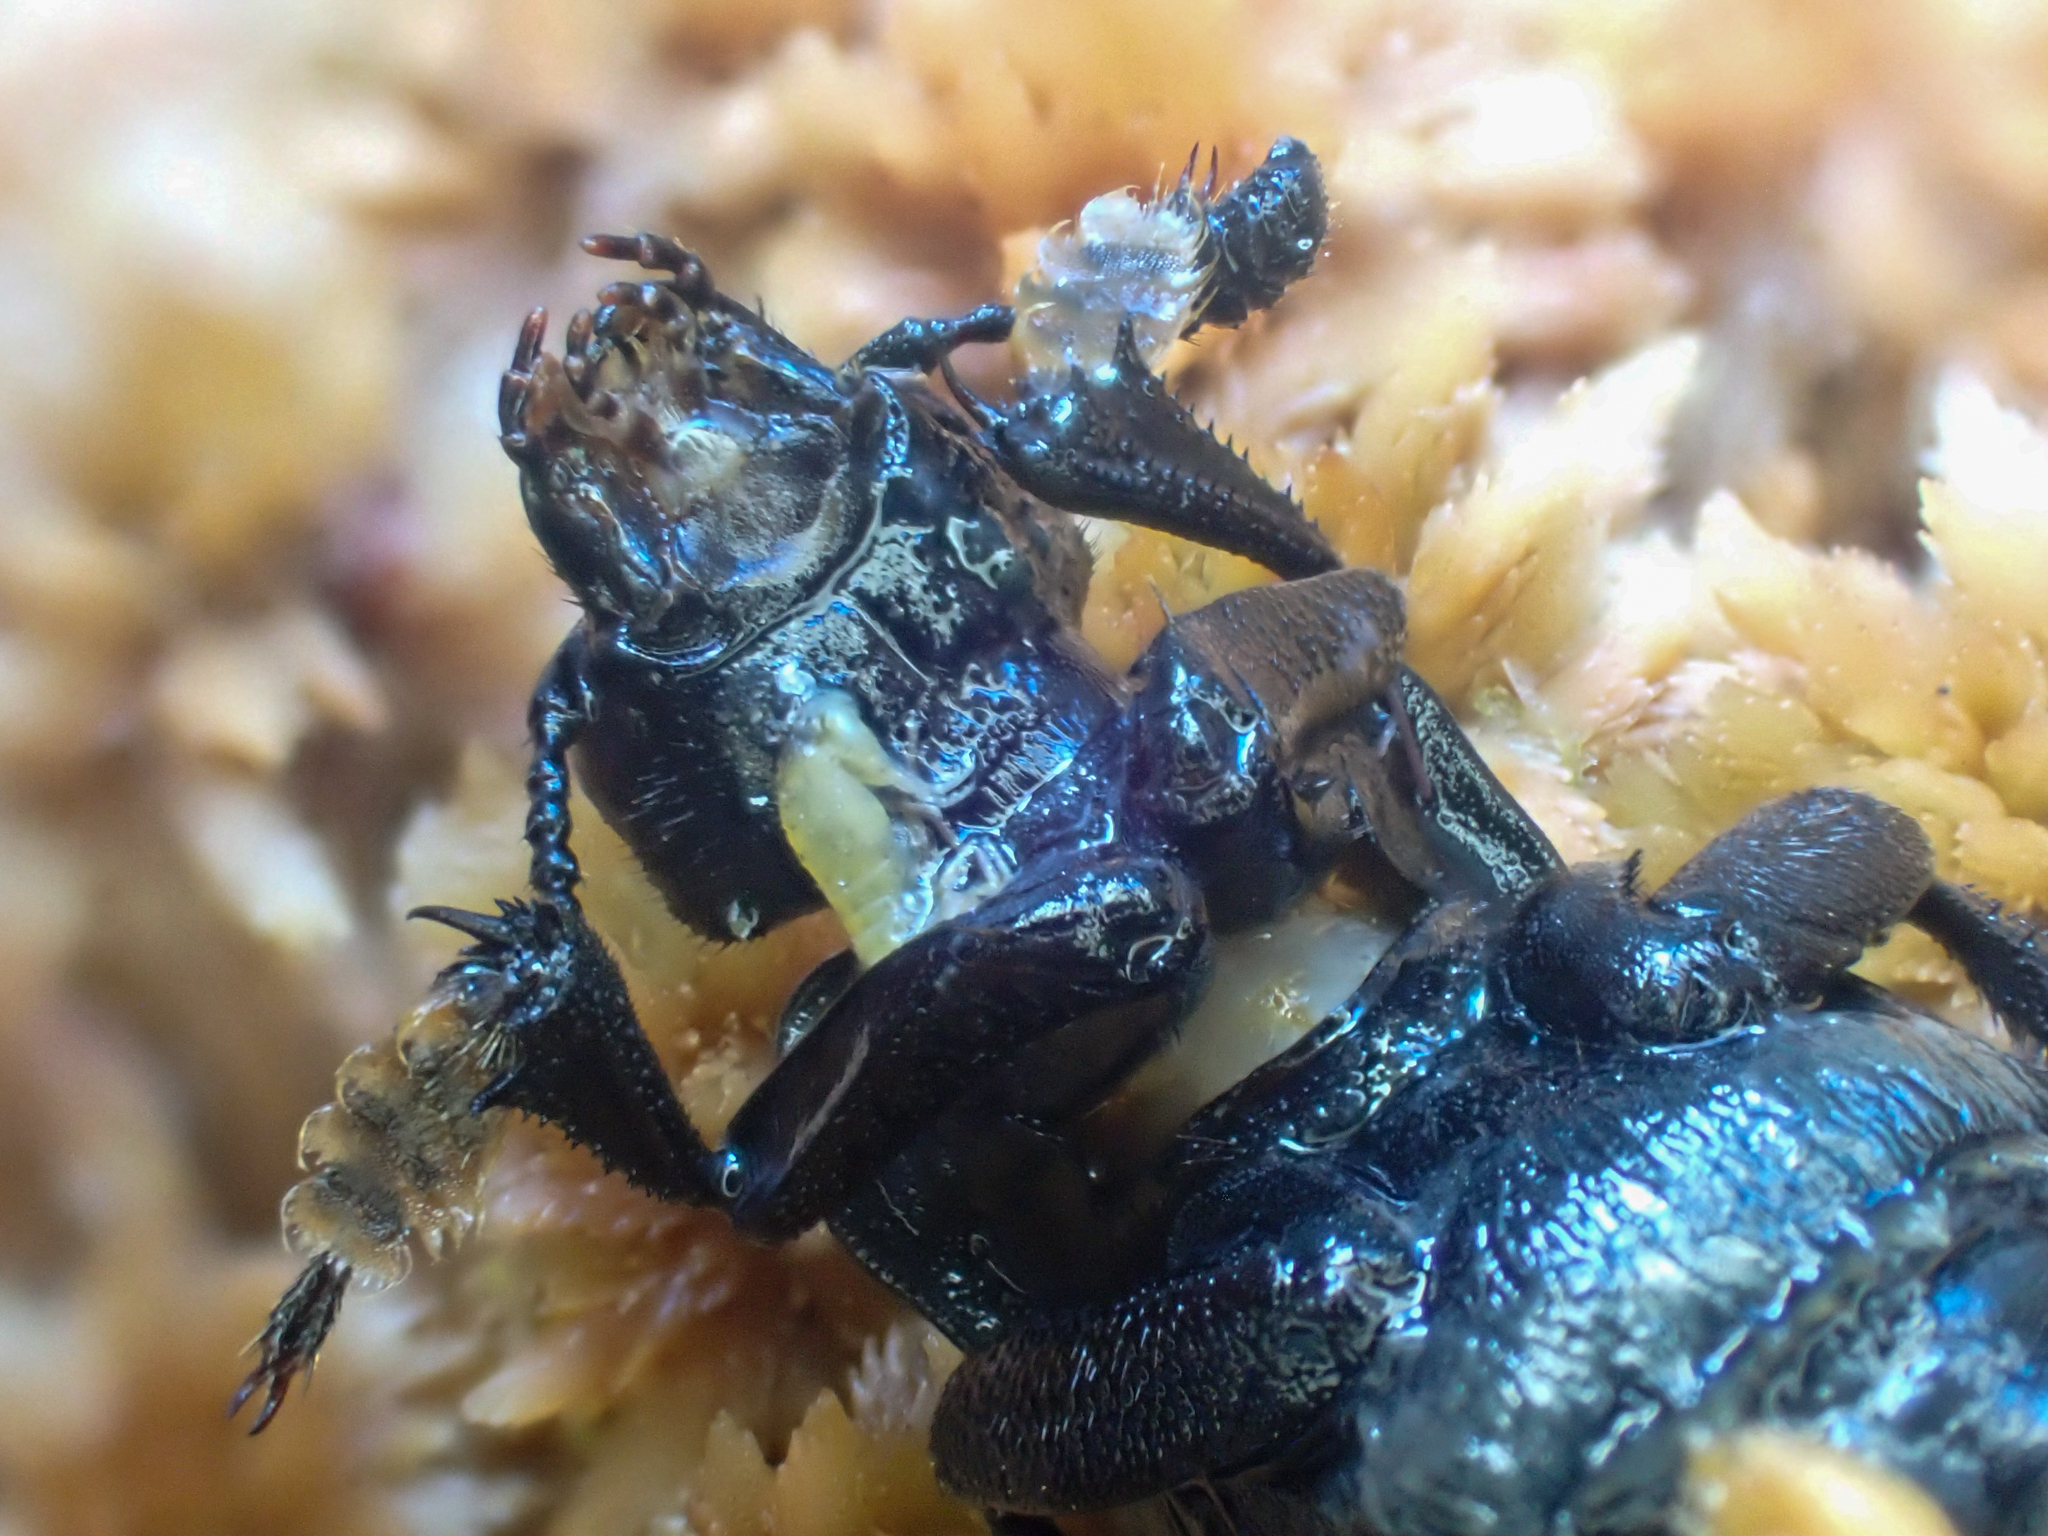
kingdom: Animalia
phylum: Arthropoda
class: Insecta
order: Coleoptera
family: Staphylinidae
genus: Nicrophorus
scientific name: Nicrophorus defodiens
